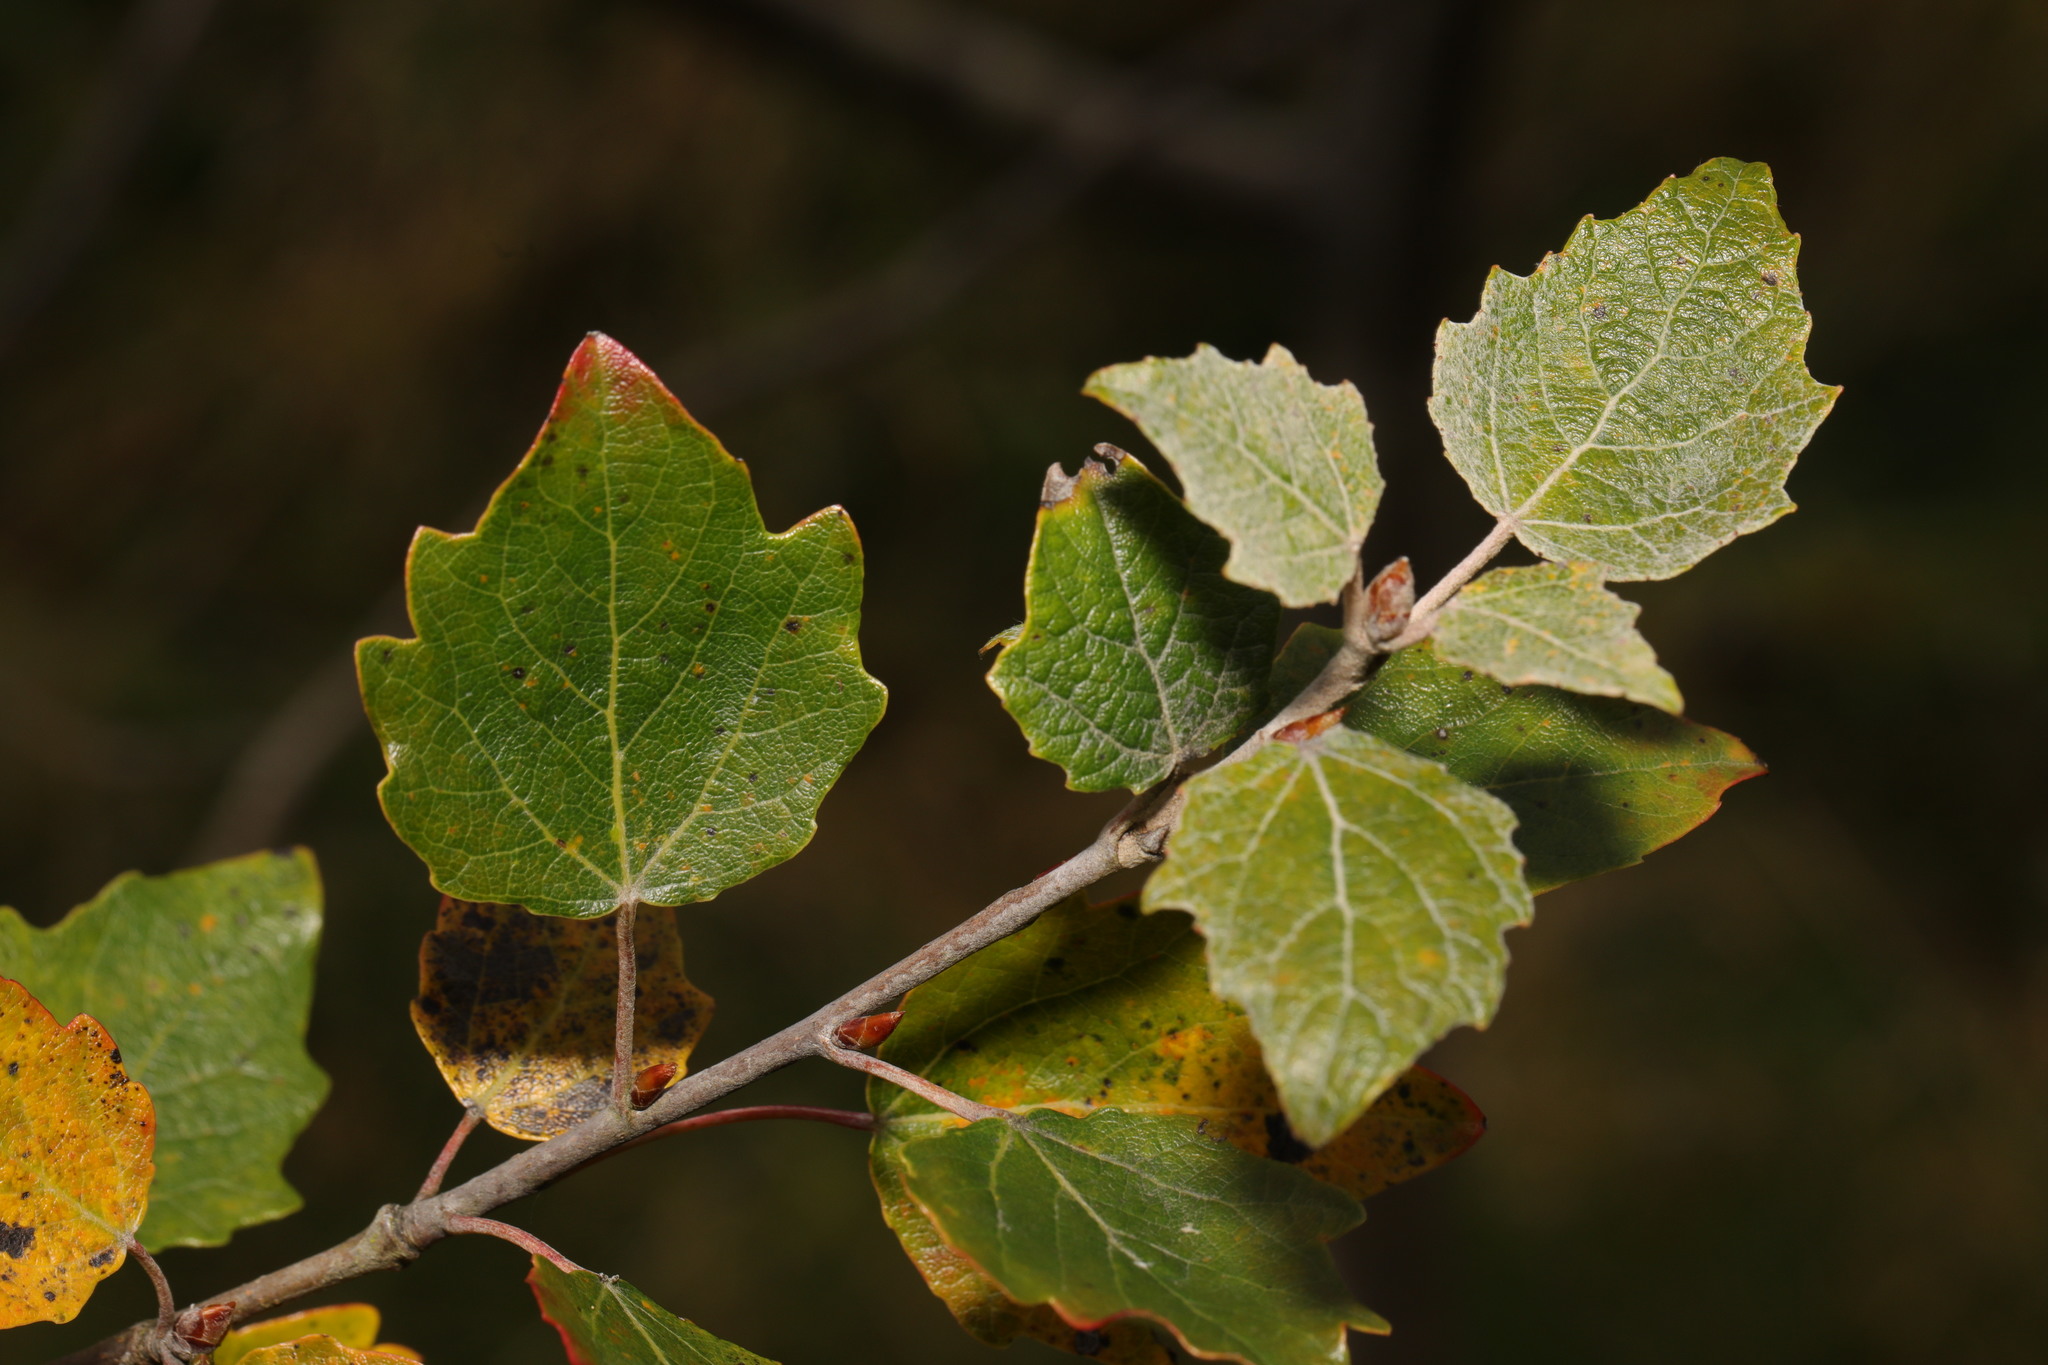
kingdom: Plantae
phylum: Tracheophyta
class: Magnoliopsida
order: Malpighiales
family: Salicaceae
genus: Populus
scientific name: Populus alba
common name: White poplar
